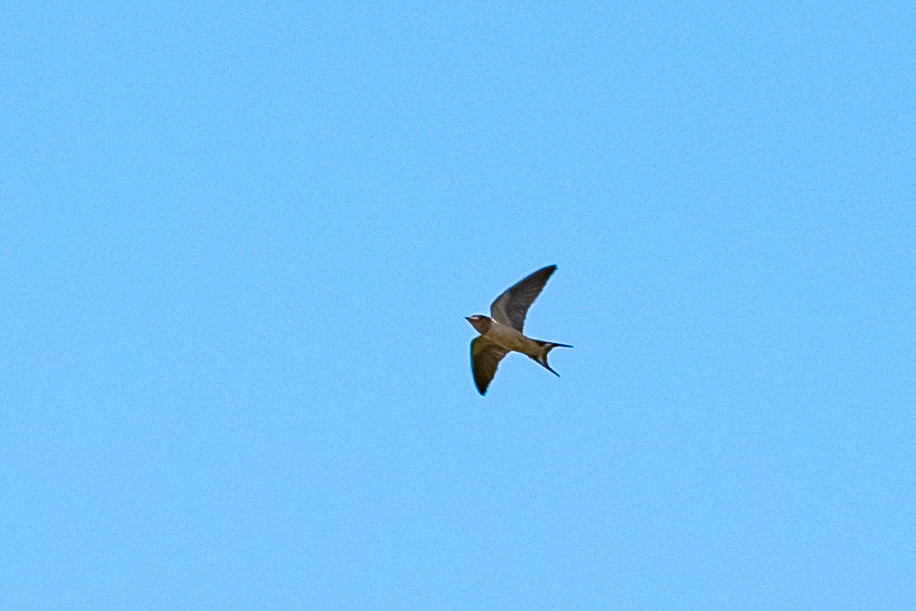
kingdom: Animalia
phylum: Chordata
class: Aves
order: Passeriformes
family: Hirundinidae
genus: Hirundo
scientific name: Hirundo rustica
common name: Barn swallow
